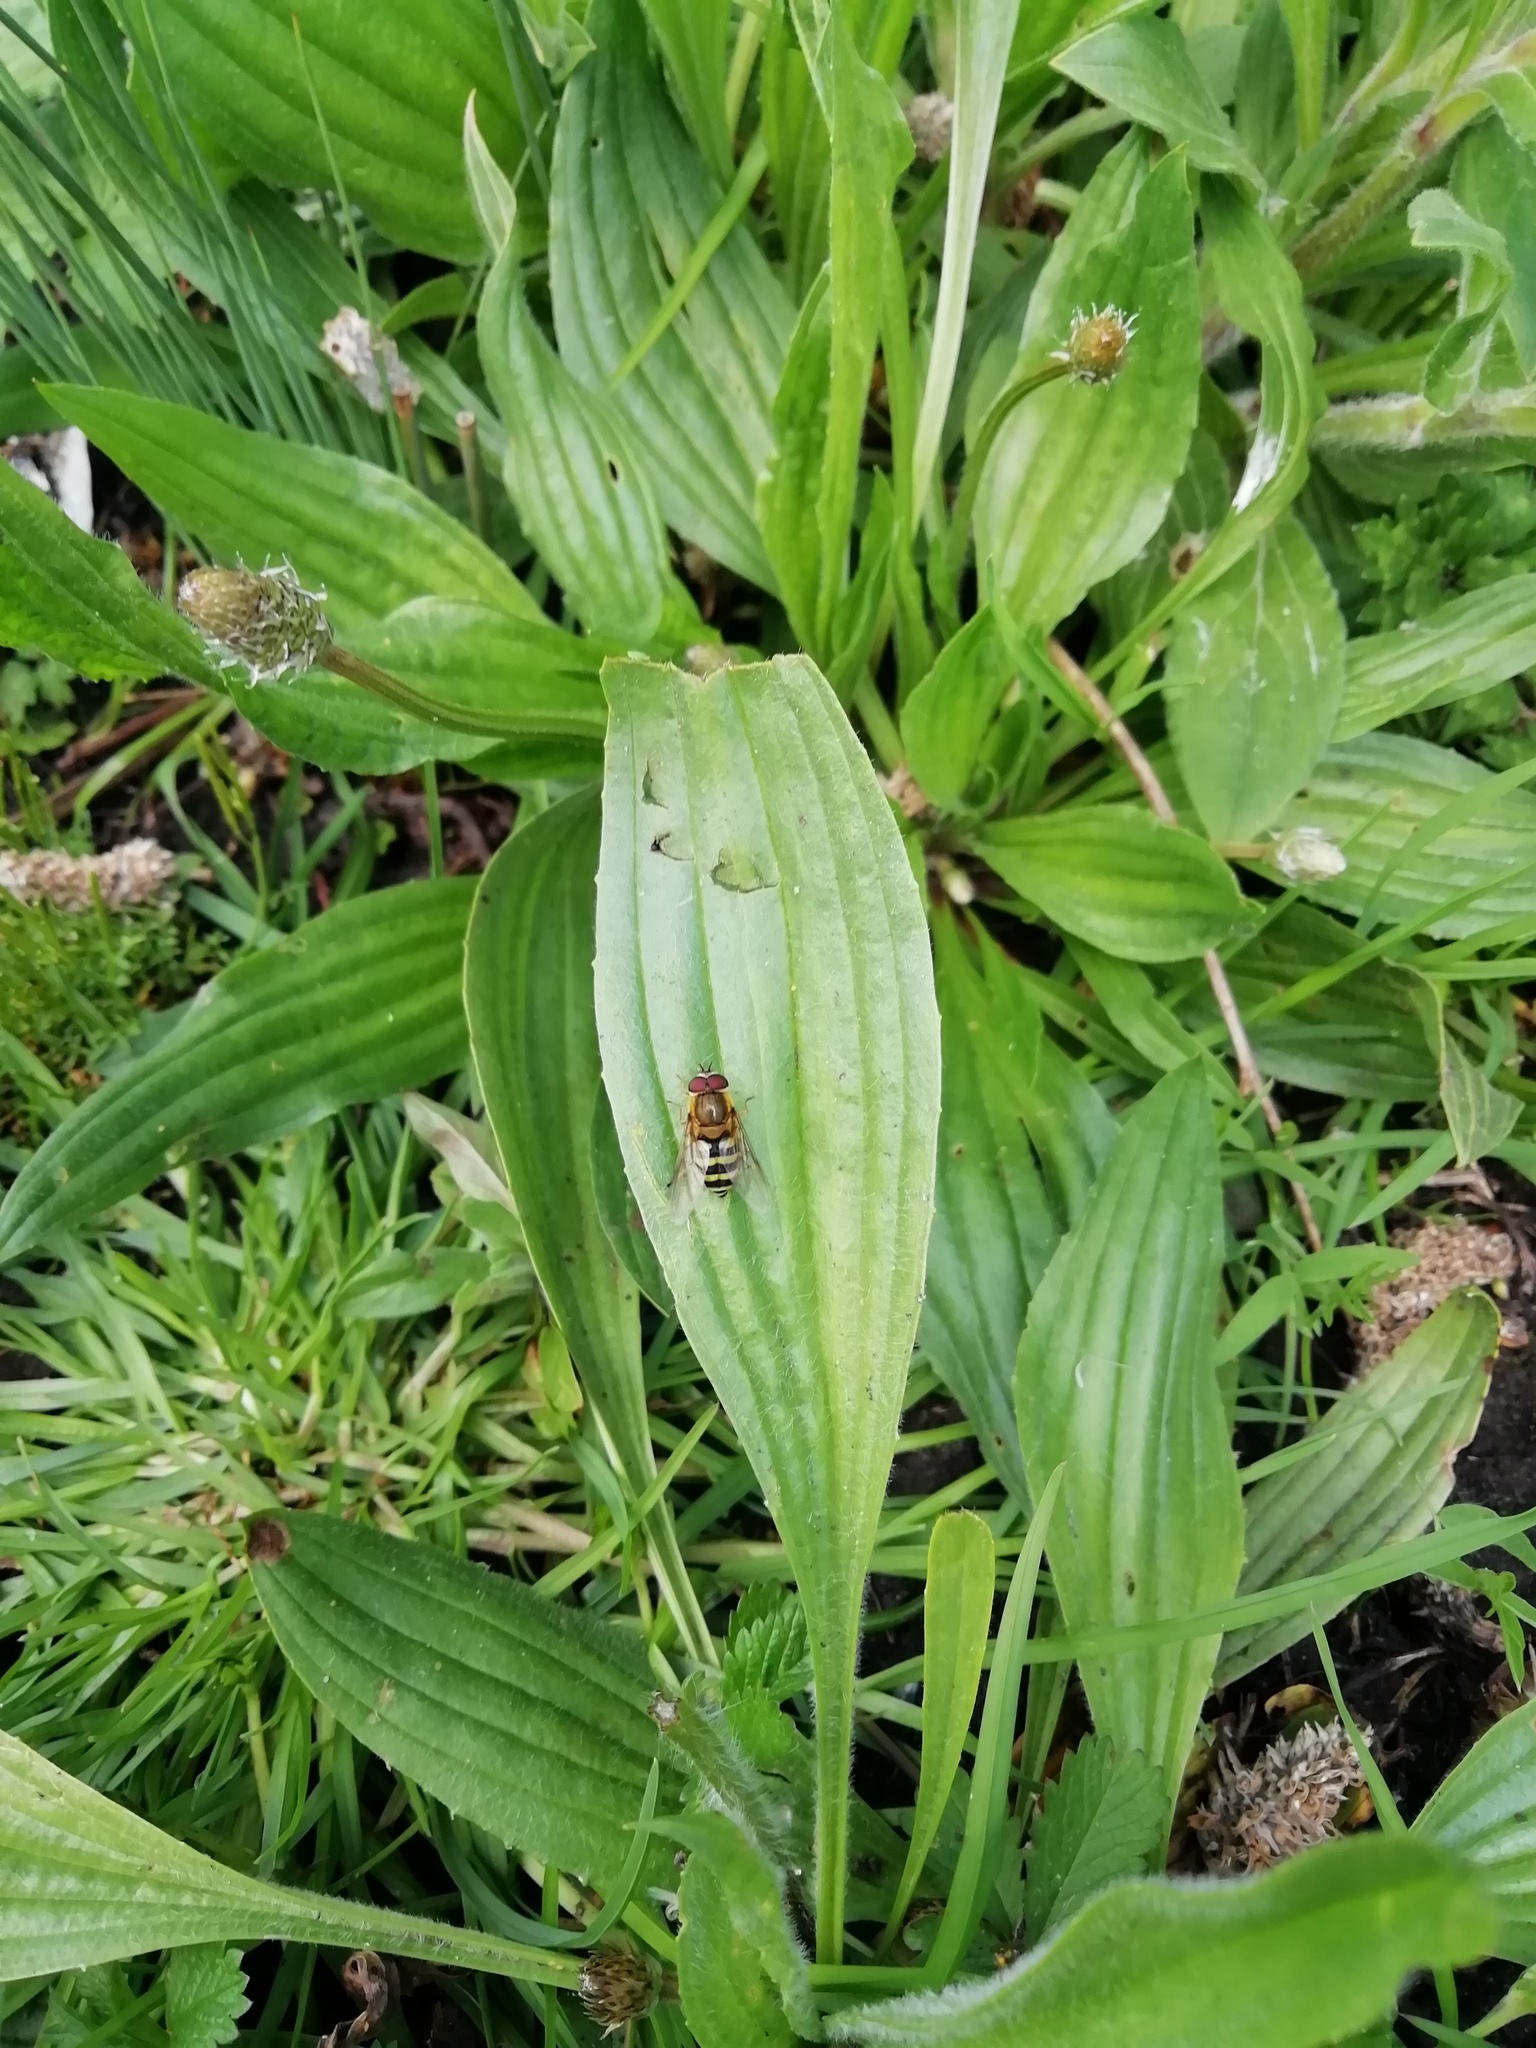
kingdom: Animalia
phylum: Arthropoda
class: Insecta
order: Diptera
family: Syrphidae
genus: Syrphus
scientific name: Syrphus
